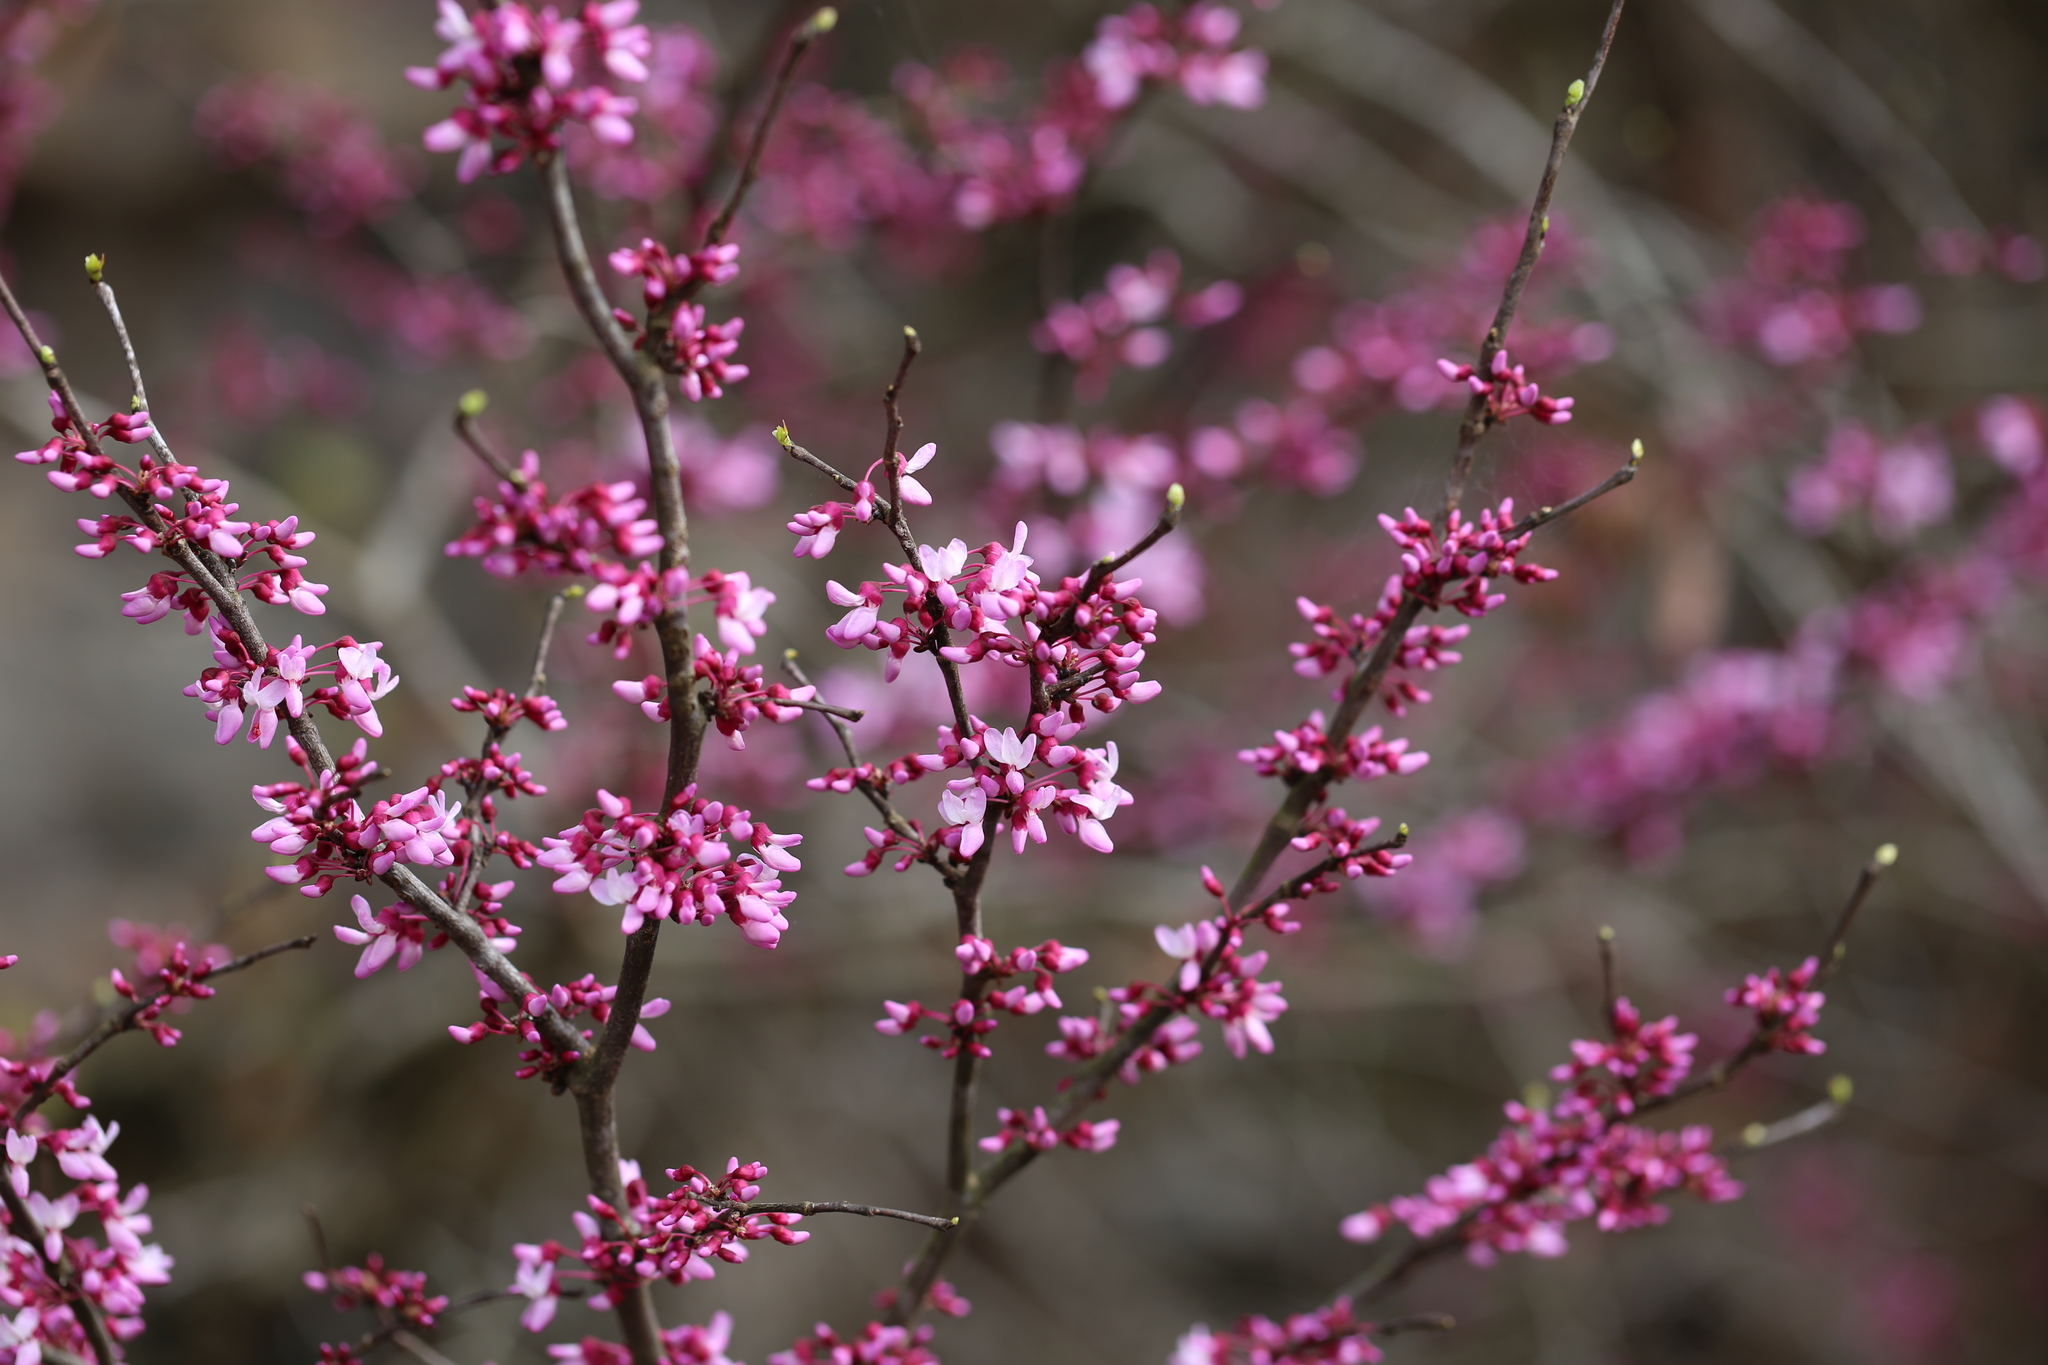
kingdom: Plantae
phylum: Tracheophyta
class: Magnoliopsida
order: Fabales
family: Fabaceae
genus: Cercis
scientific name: Cercis canadensis
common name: Eastern redbud
